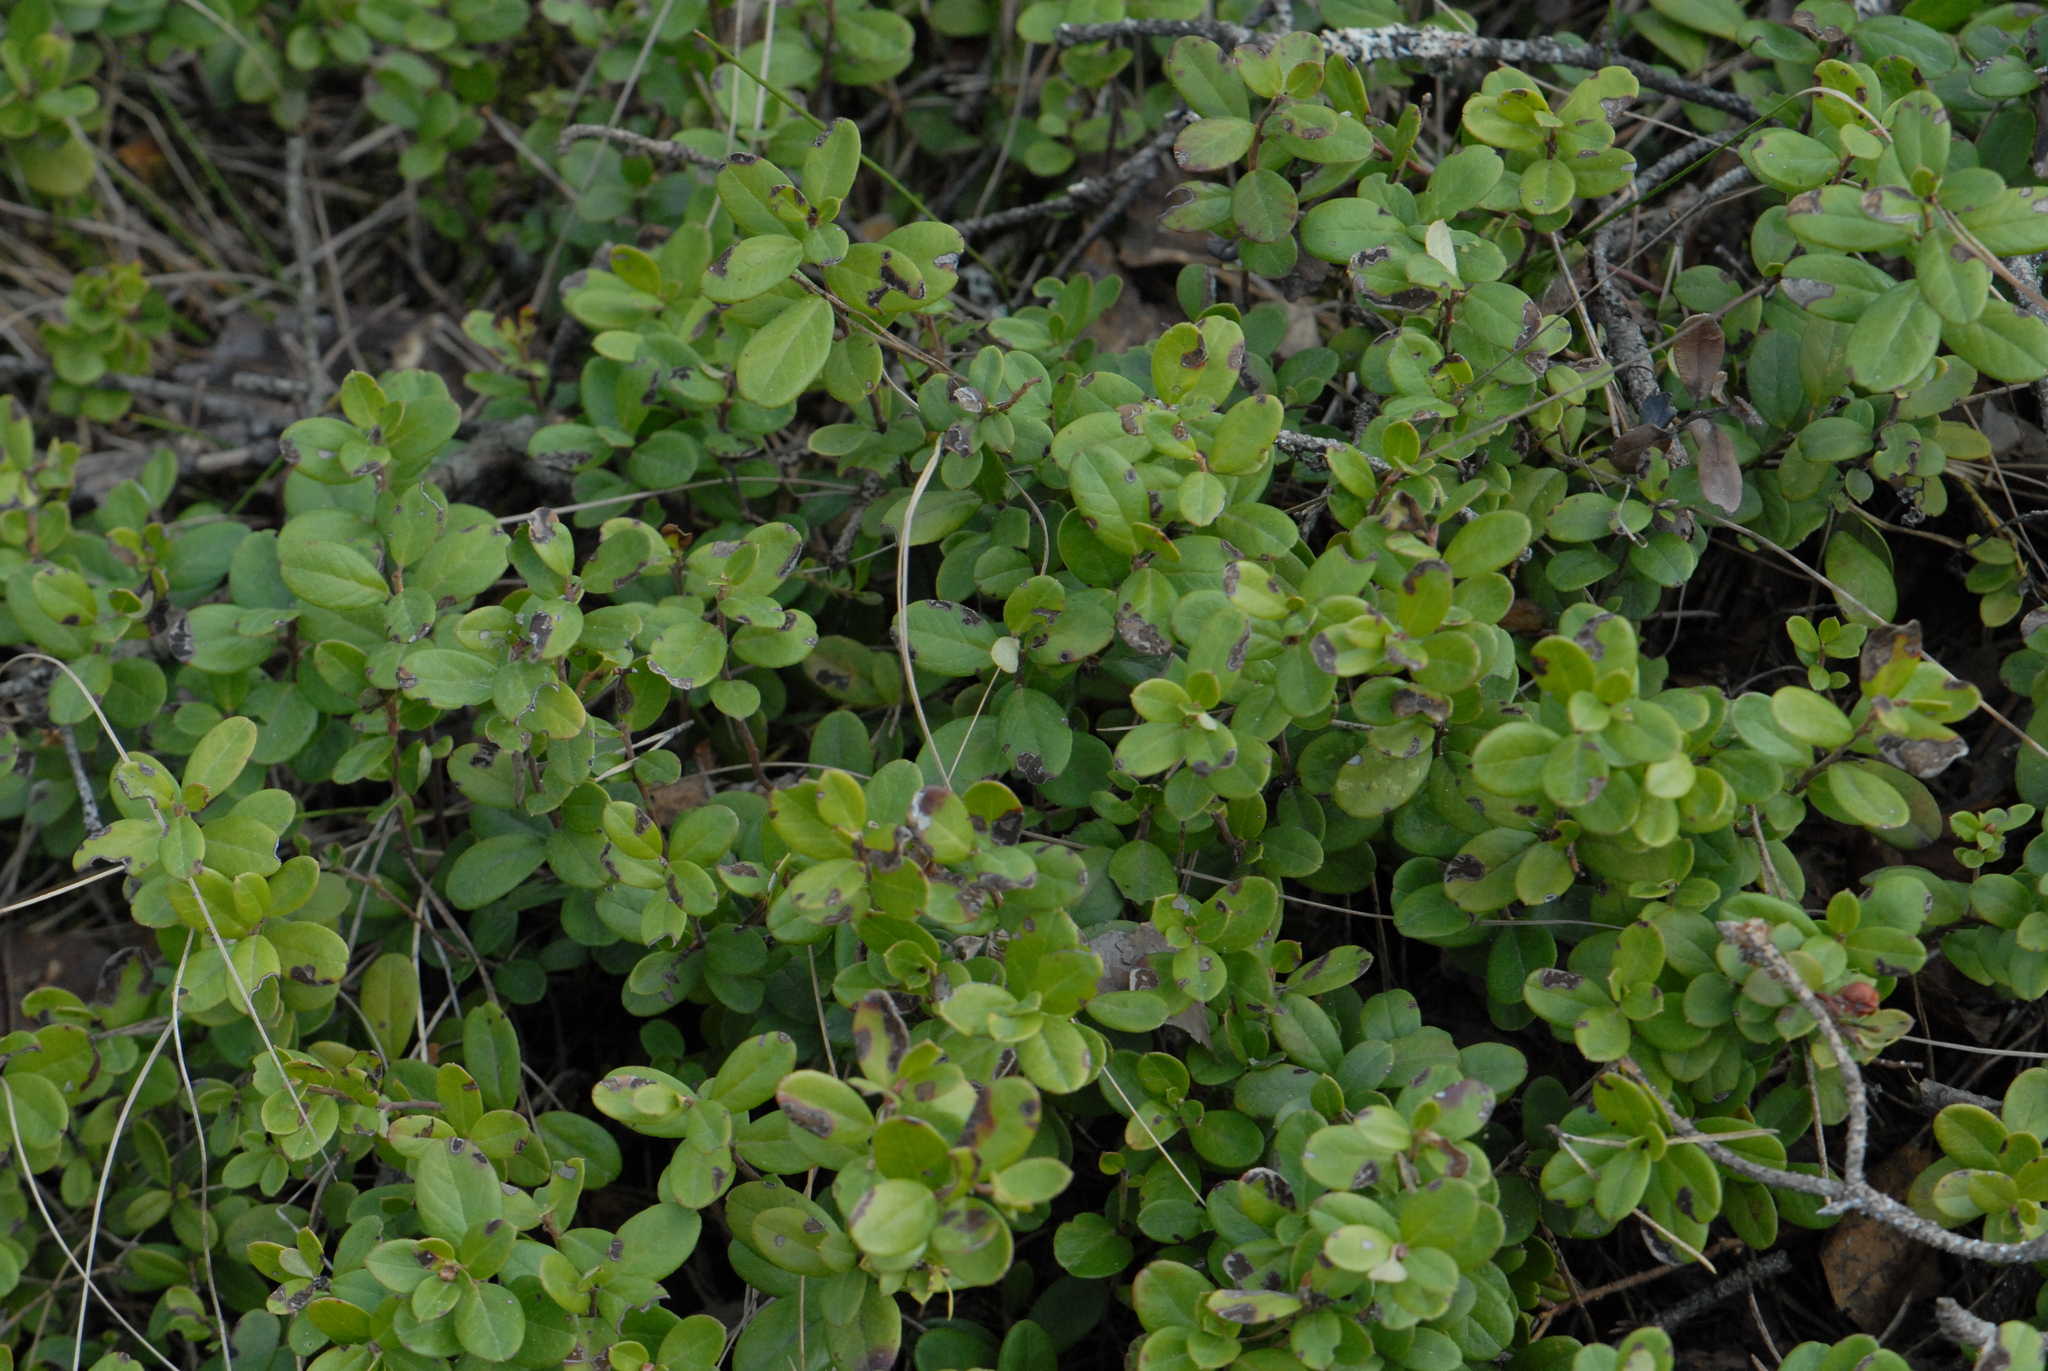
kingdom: Plantae
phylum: Tracheophyta
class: Magnoliopsida
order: Ericales
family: Ericaceae
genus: Vaccinium
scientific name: Vaccinium vitis-idaea
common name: Cowberry
